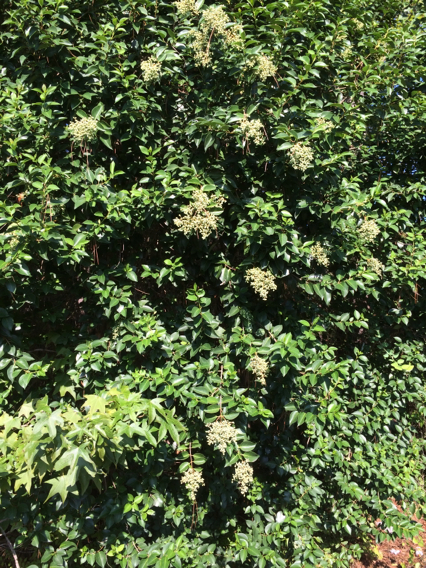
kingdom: Plantae
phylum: Tracheophyta
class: Magnoliopsida
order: Lamiales
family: Oleaceae
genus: Ligustrum
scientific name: Ligustrum lucidum
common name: Glossy privet
